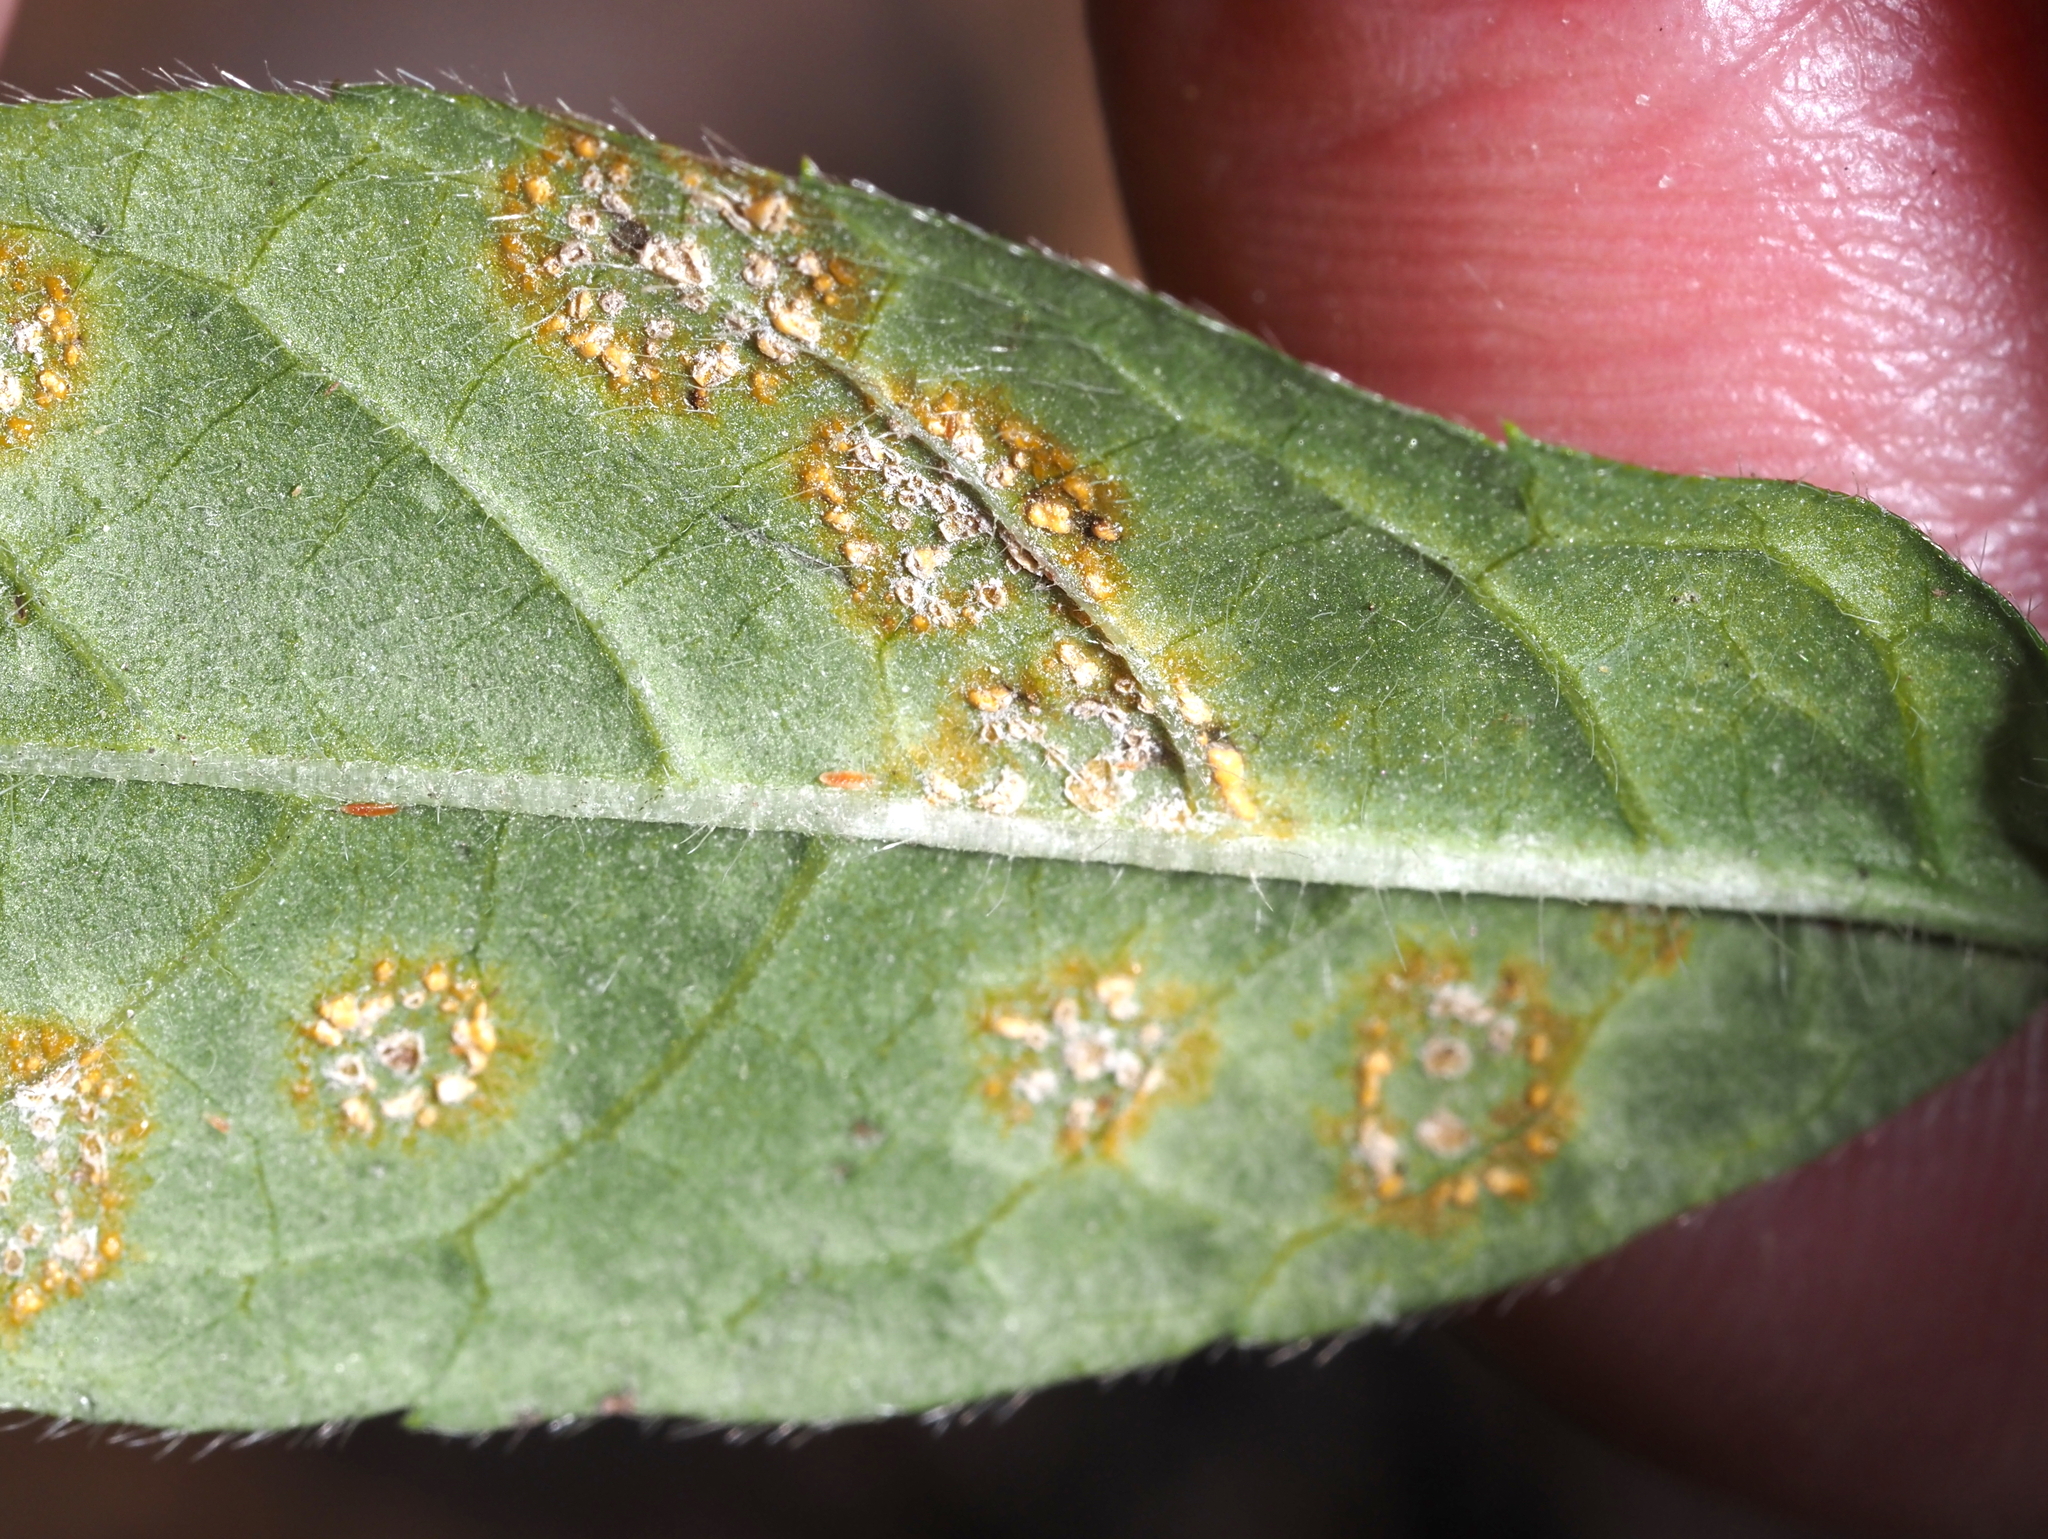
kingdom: Fungi
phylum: Basidiomycota
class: Pucciniomycetes
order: Pucciniales
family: Coleosporiaceae
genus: Coleosporium
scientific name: Coleosporium elephantopodis
